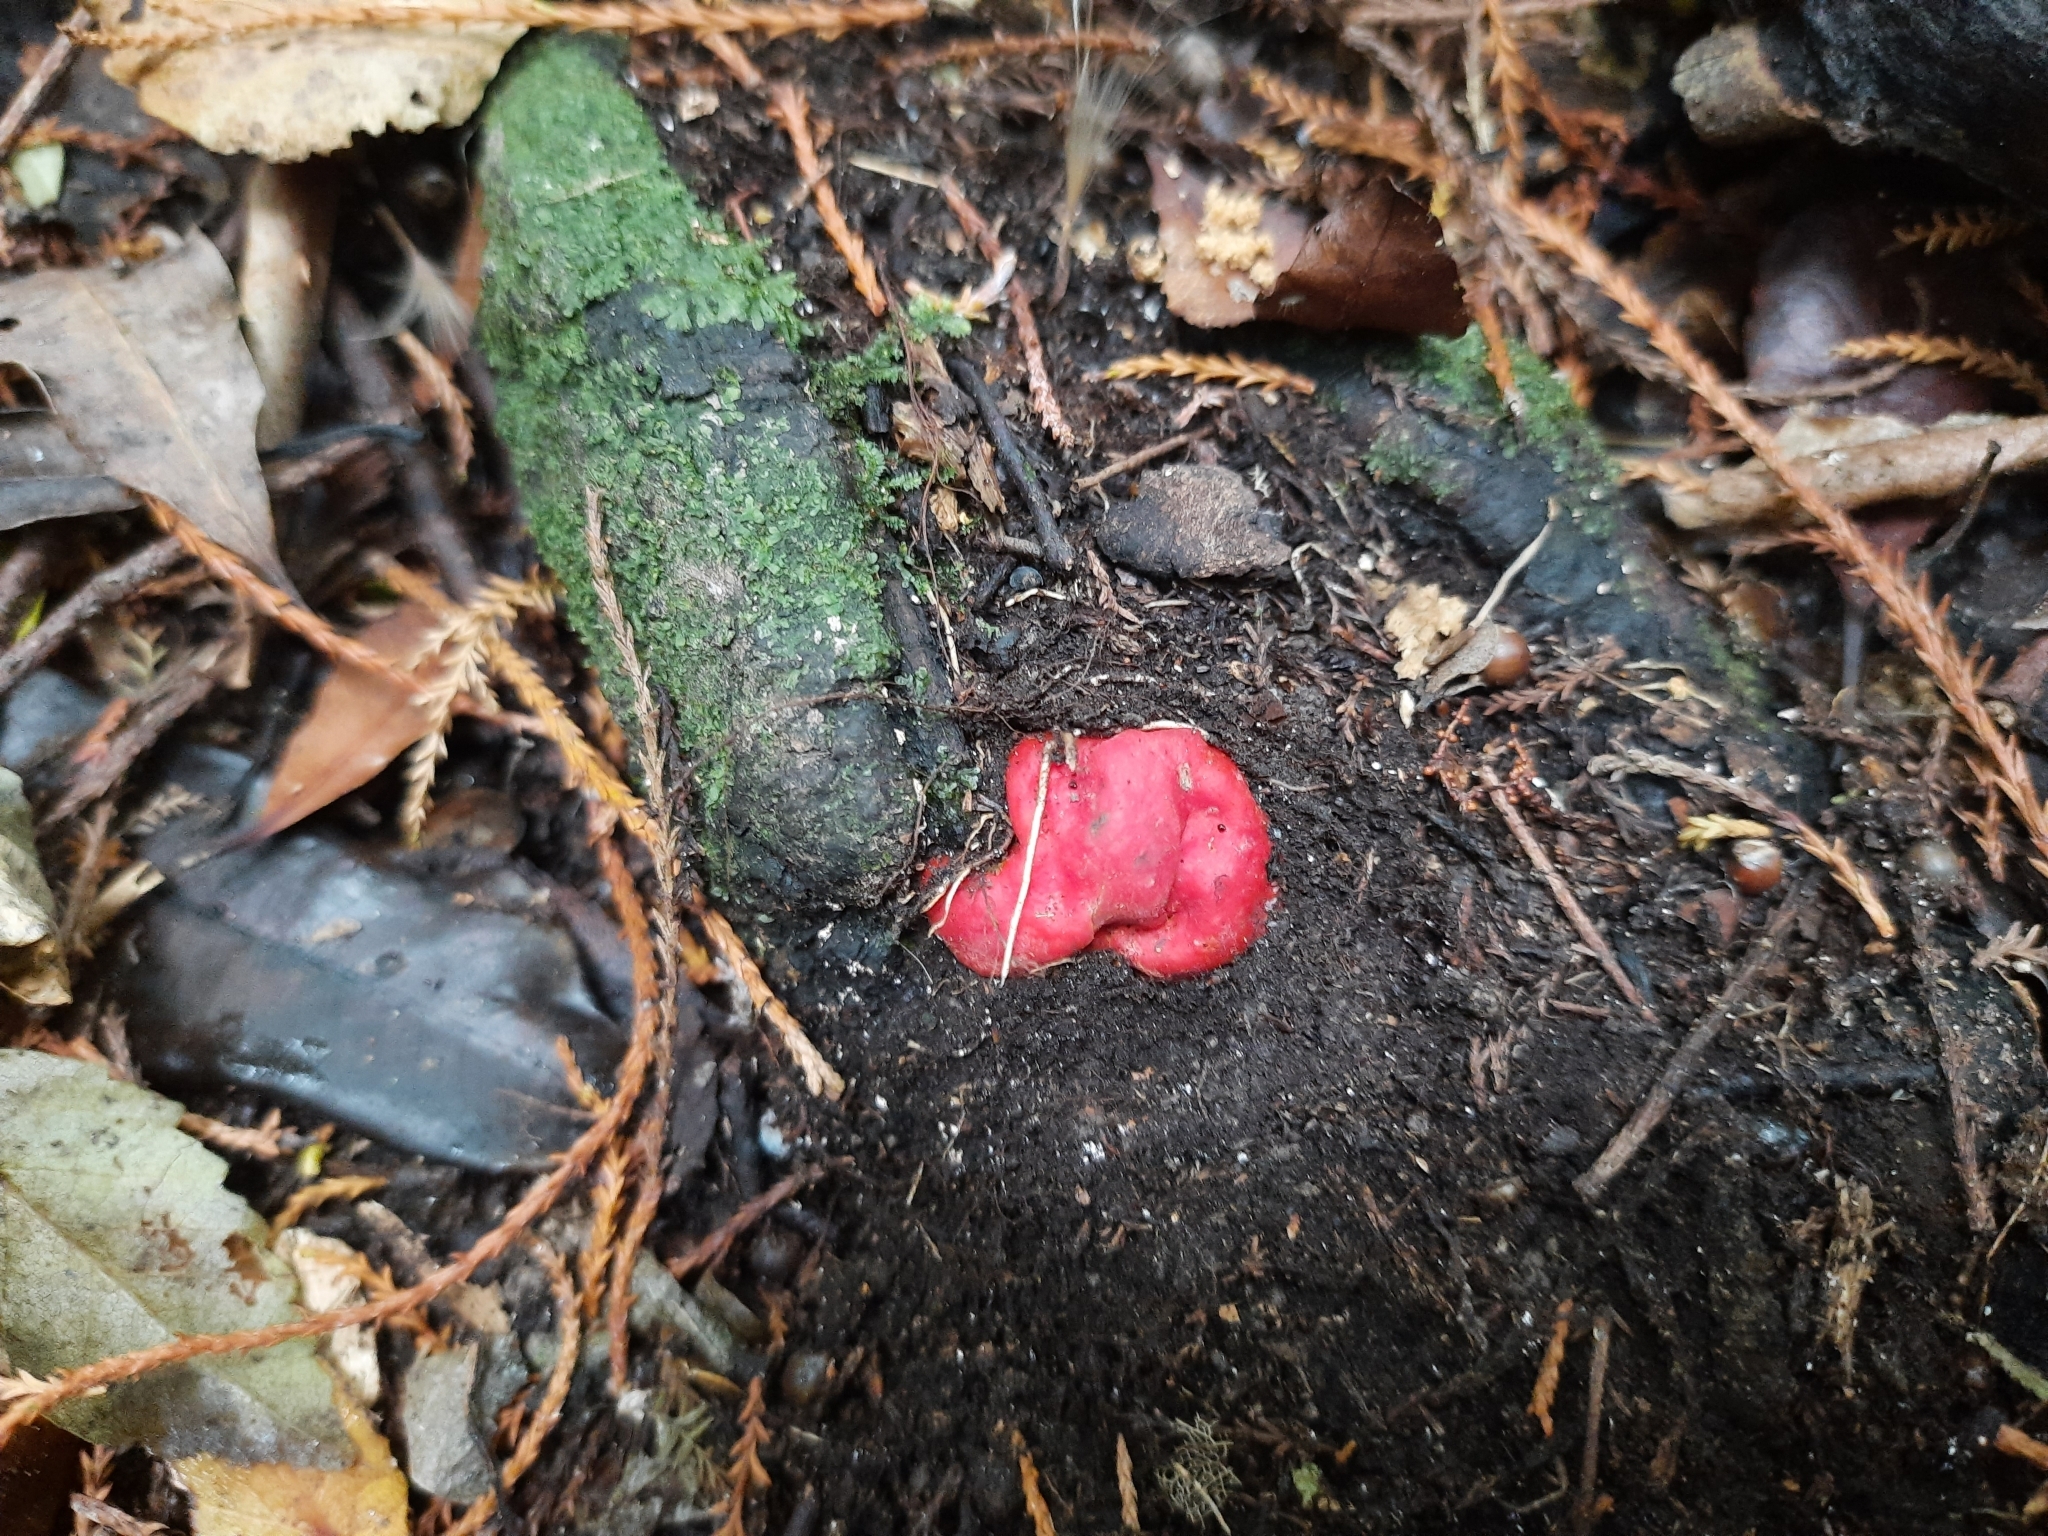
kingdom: Fungi
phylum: Ascomycota
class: Pezizomycetes
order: Pezizales
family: Pyronemataceae
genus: Paurocotylis
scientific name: Paurocotylis pila
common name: Scarlet berry truffle
